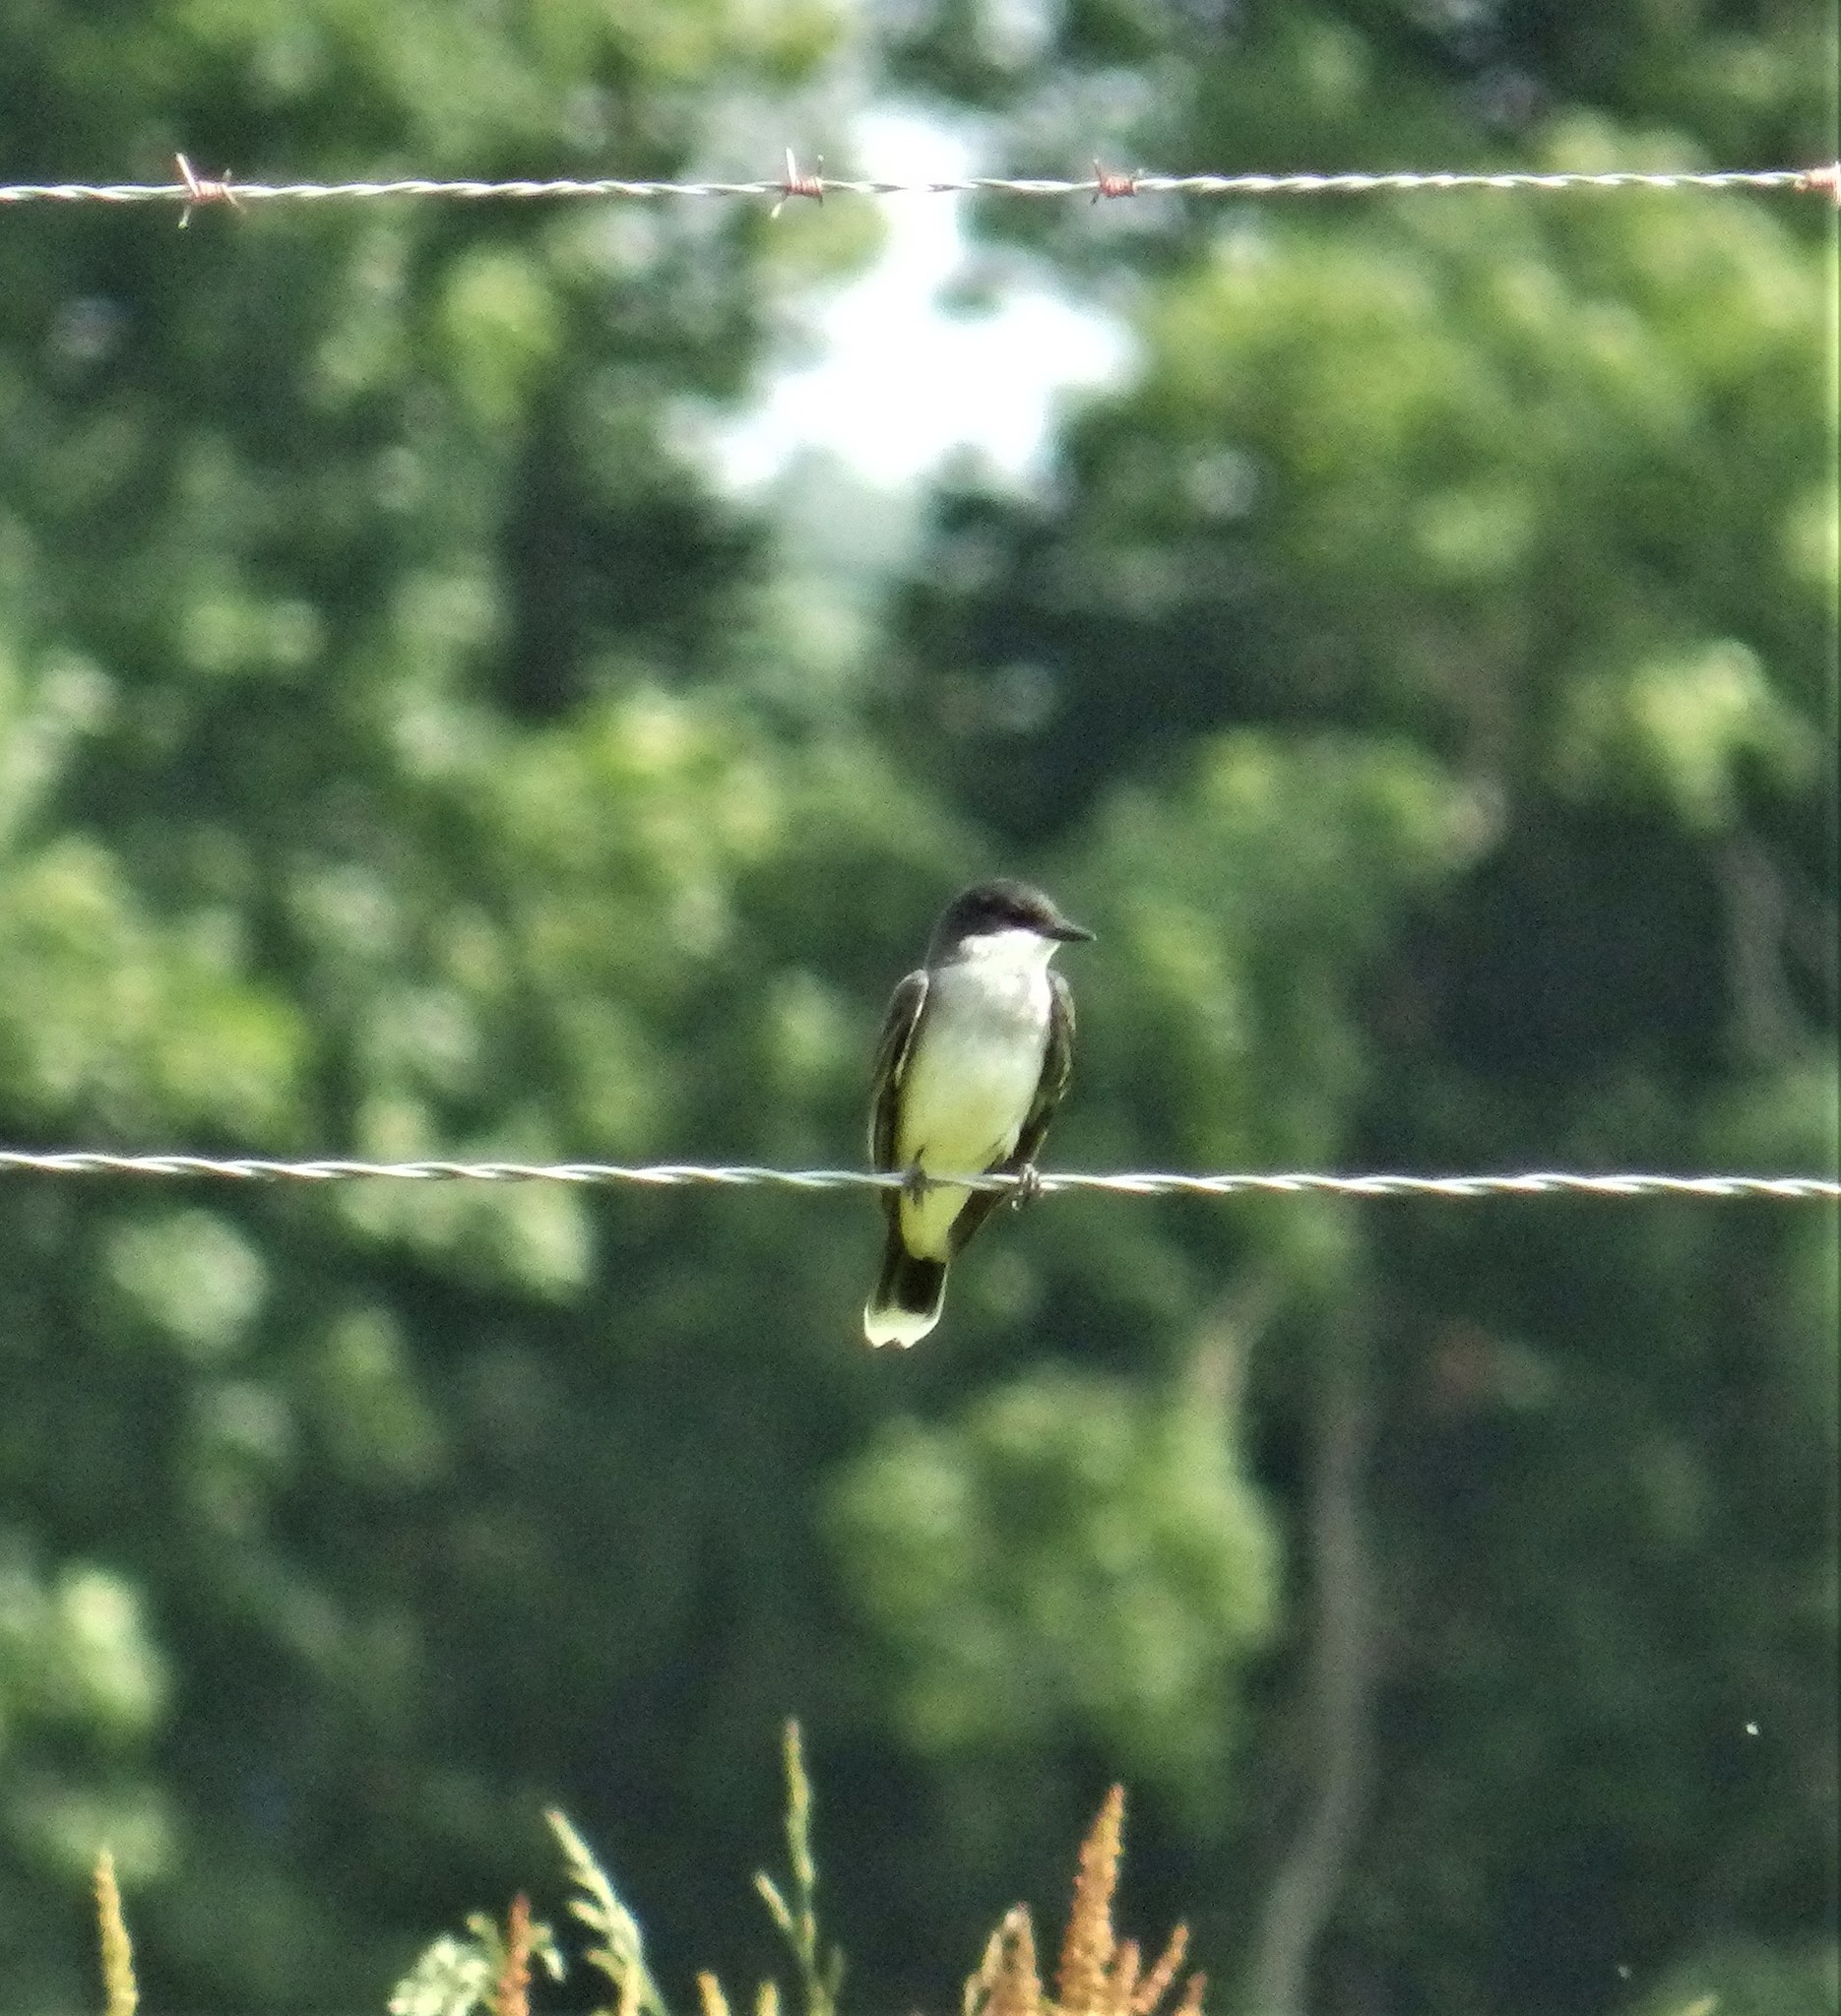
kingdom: Animalia
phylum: Chordata
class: Aves
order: Passeriformes
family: Tyrannidae
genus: Tyrannus
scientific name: Tyrannus tyrannus
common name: Eastern kingbird
